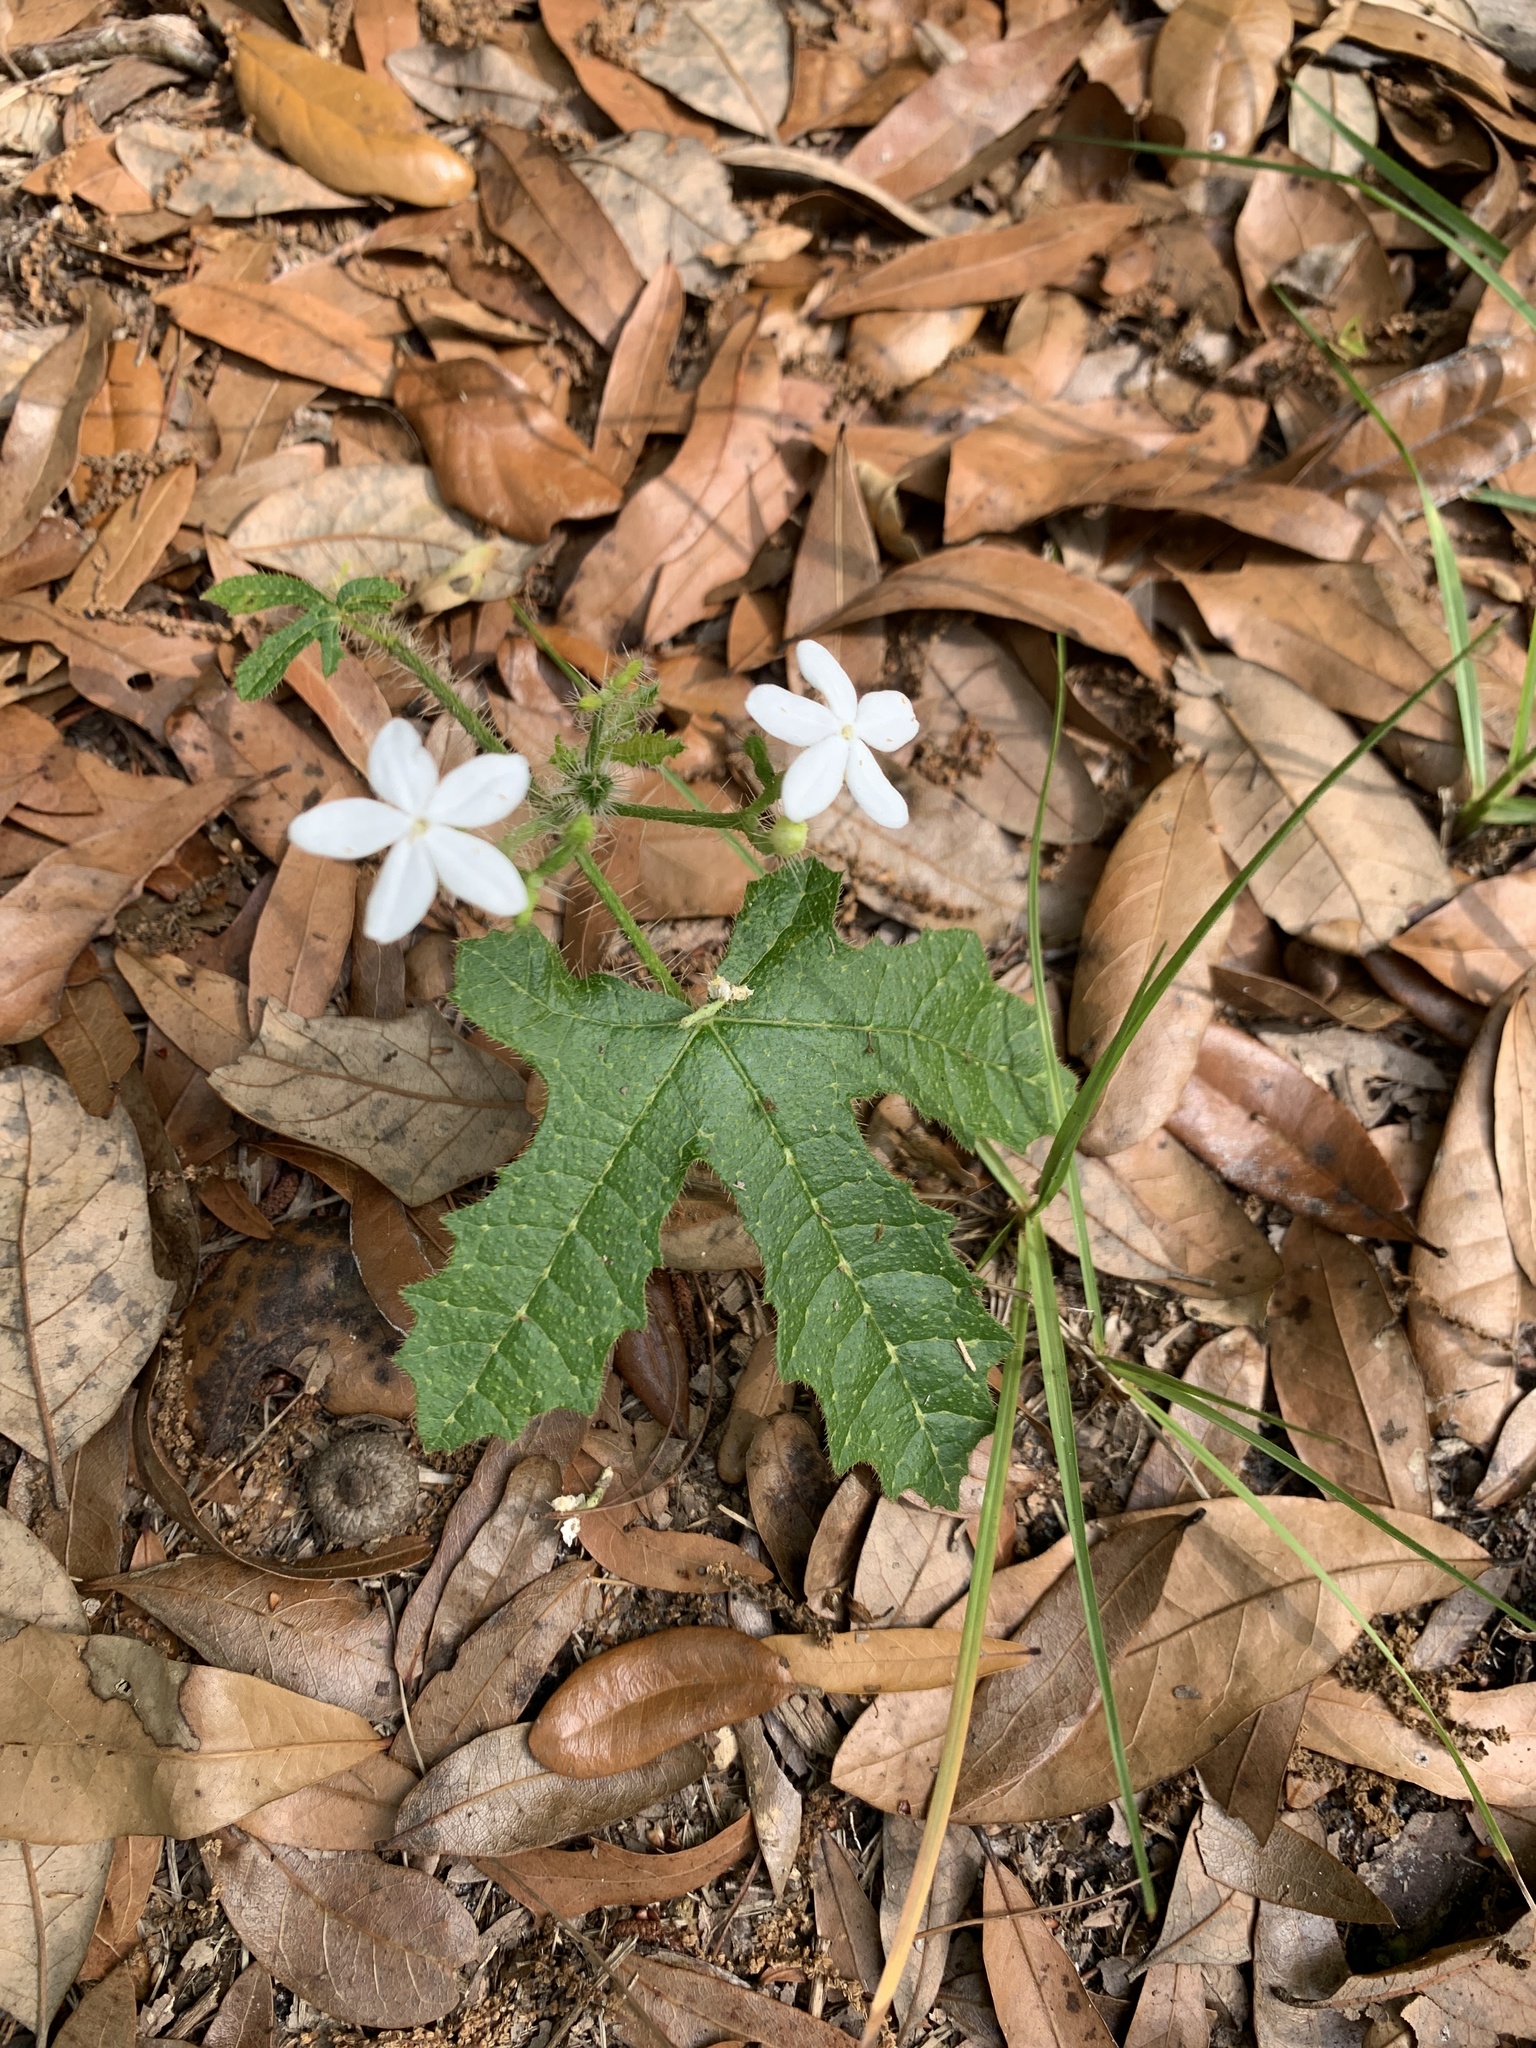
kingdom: Plantae
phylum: Tracheophyta
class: Magnoliopsida
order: Malpighiales
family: Euphorbiaceae
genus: Cnidoscolus
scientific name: Cnidoscolus stimulosus
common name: Bull-nettle
